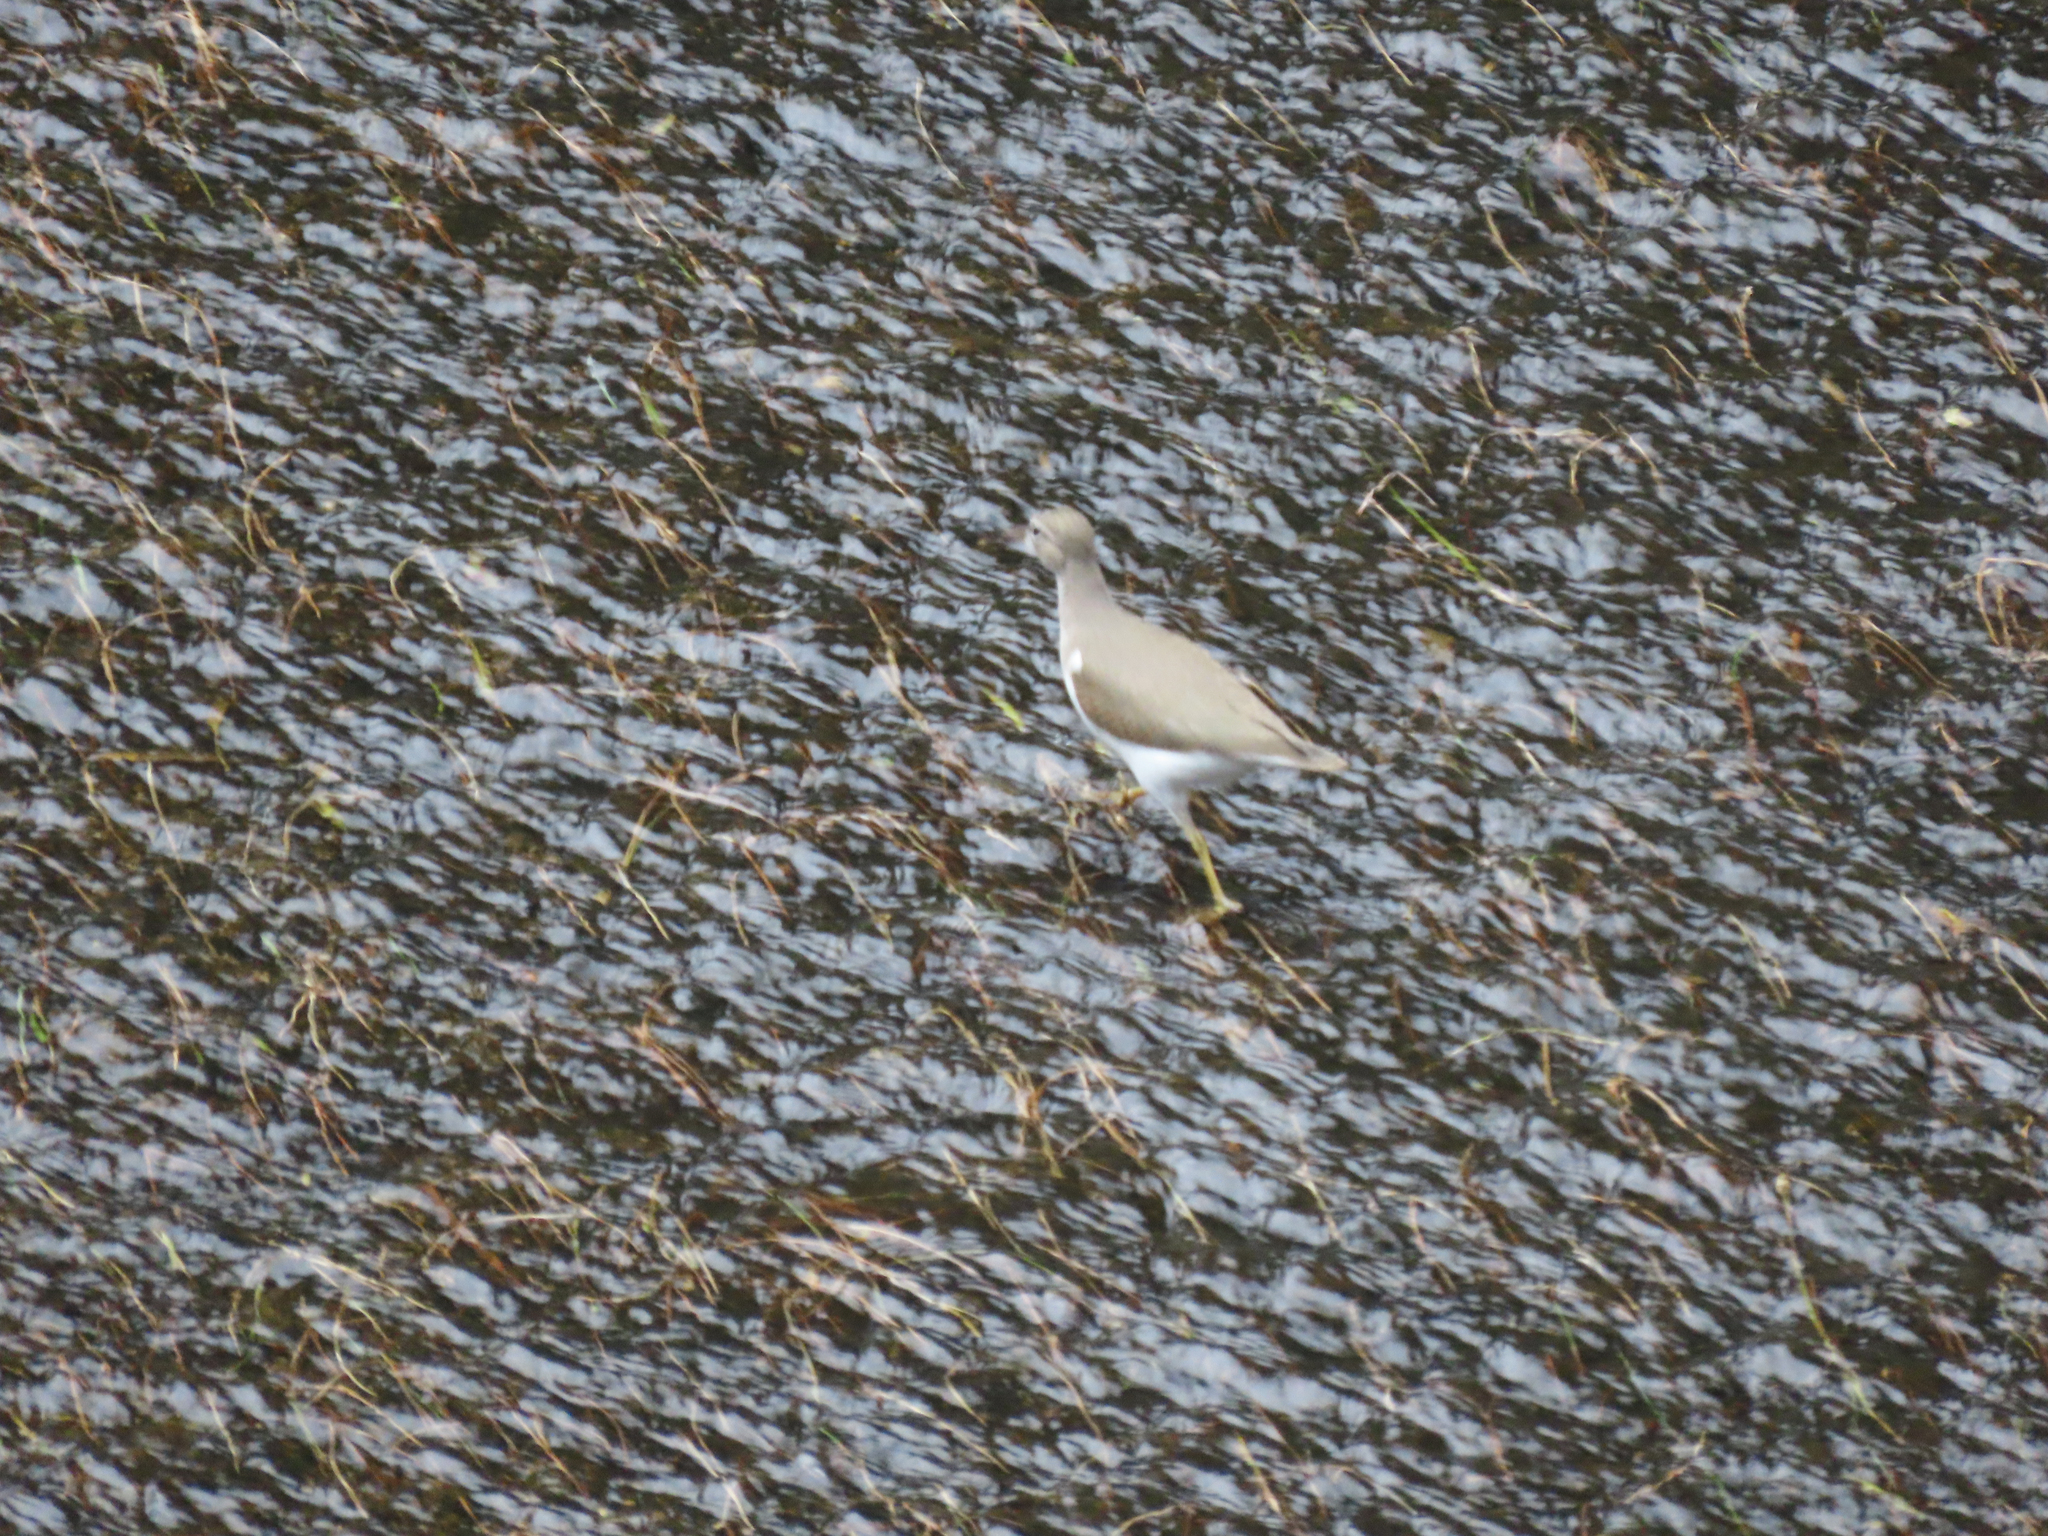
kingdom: Animalia
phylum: Chordata
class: Aves
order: Charadriiformes
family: Scolopacidae
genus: Actitis
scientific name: Actitis macularius
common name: Spotted sandpiper
